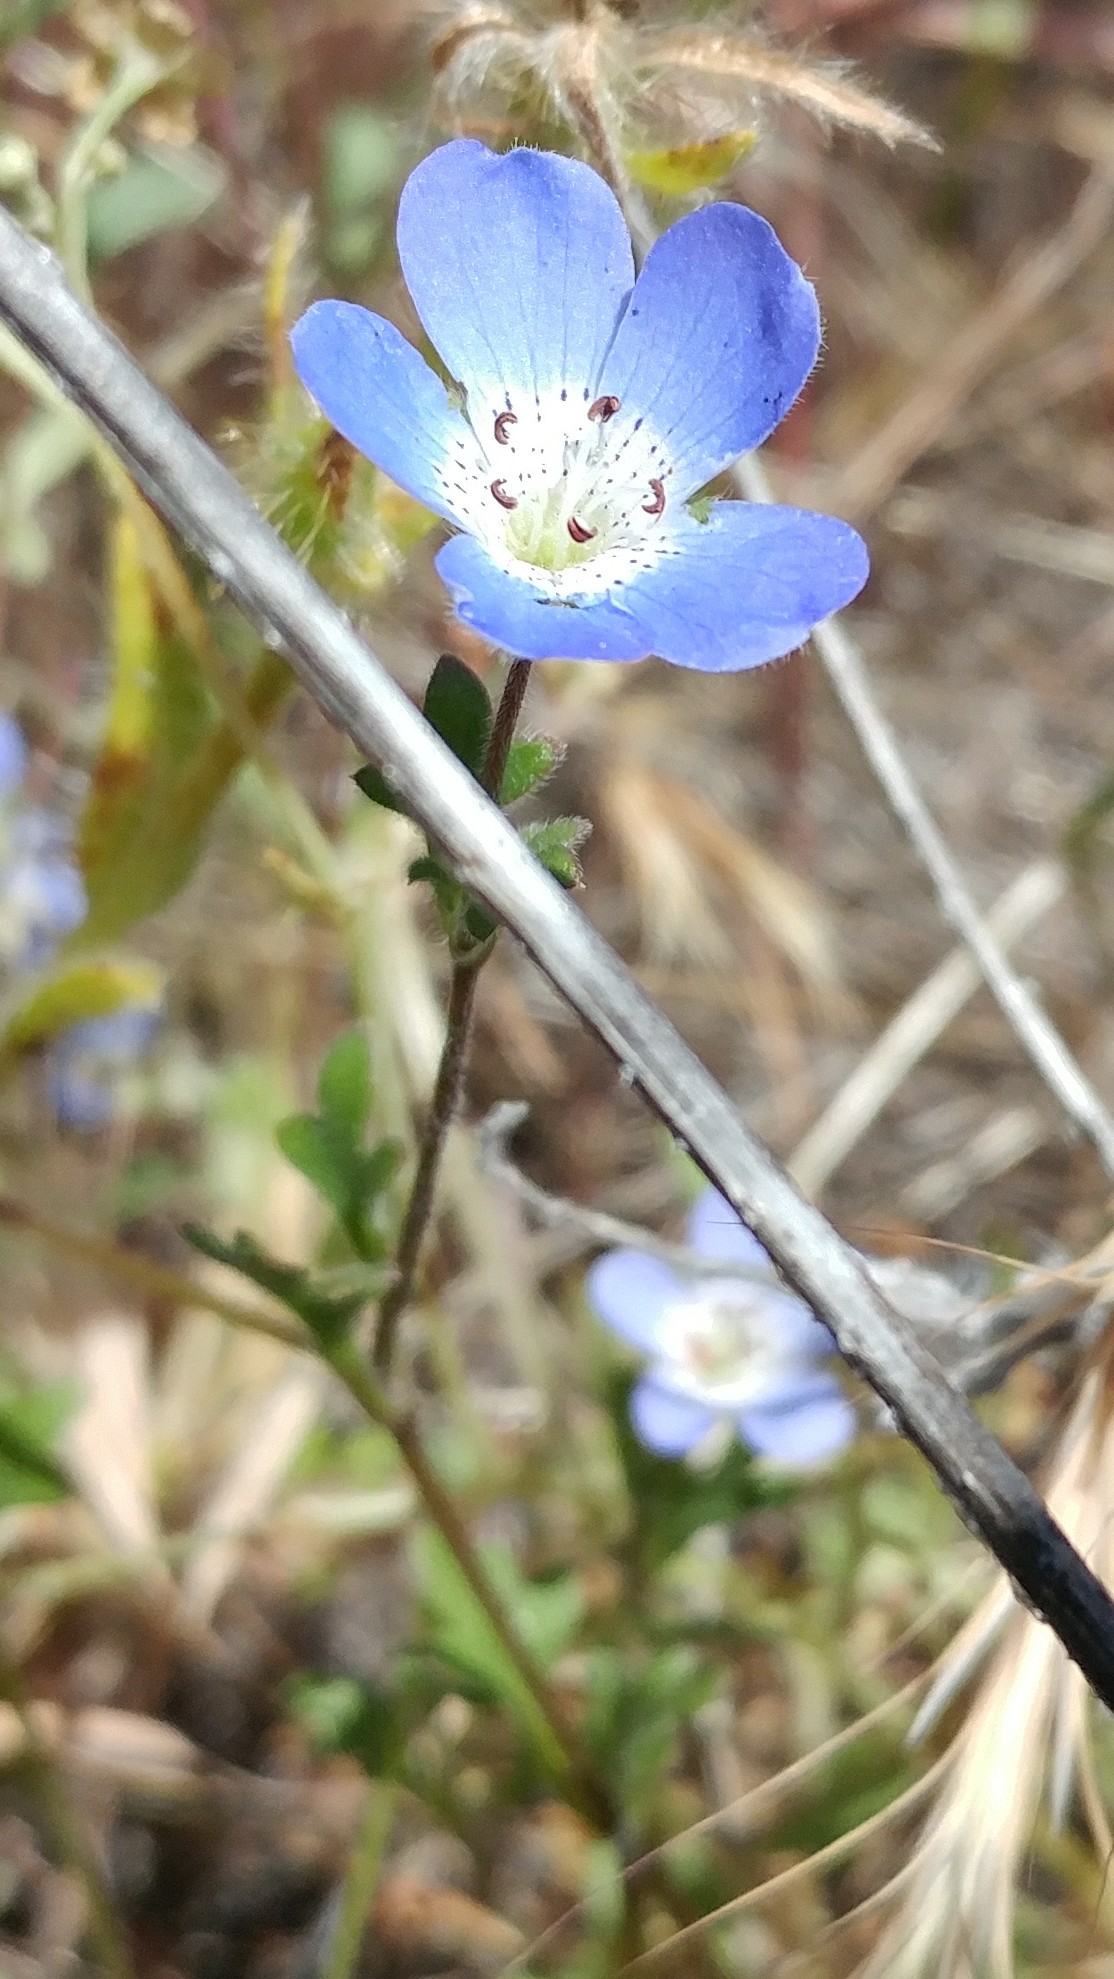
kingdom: Plantae
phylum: Tracheophyta
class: Magnoliopsida
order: Boraginales
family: Hydrophyllaceae
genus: Nemophila
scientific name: Nemophila menziesii
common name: Baby's-blue-eyes
